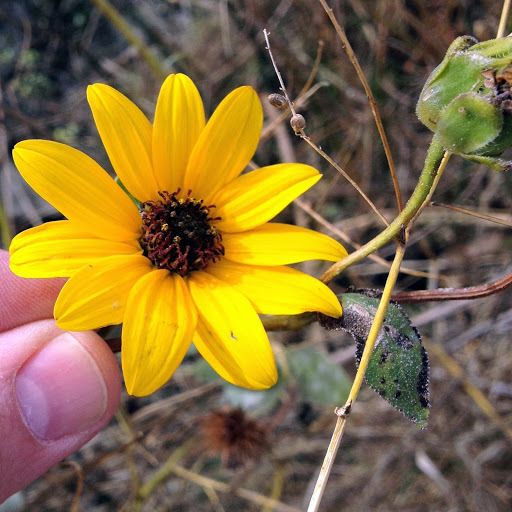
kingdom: Plantae
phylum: Tracheophyta
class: Magnoliopsida
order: Asterales
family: Asteraceae
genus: Helianthus
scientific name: Helianthus annuus
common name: Sunflower
